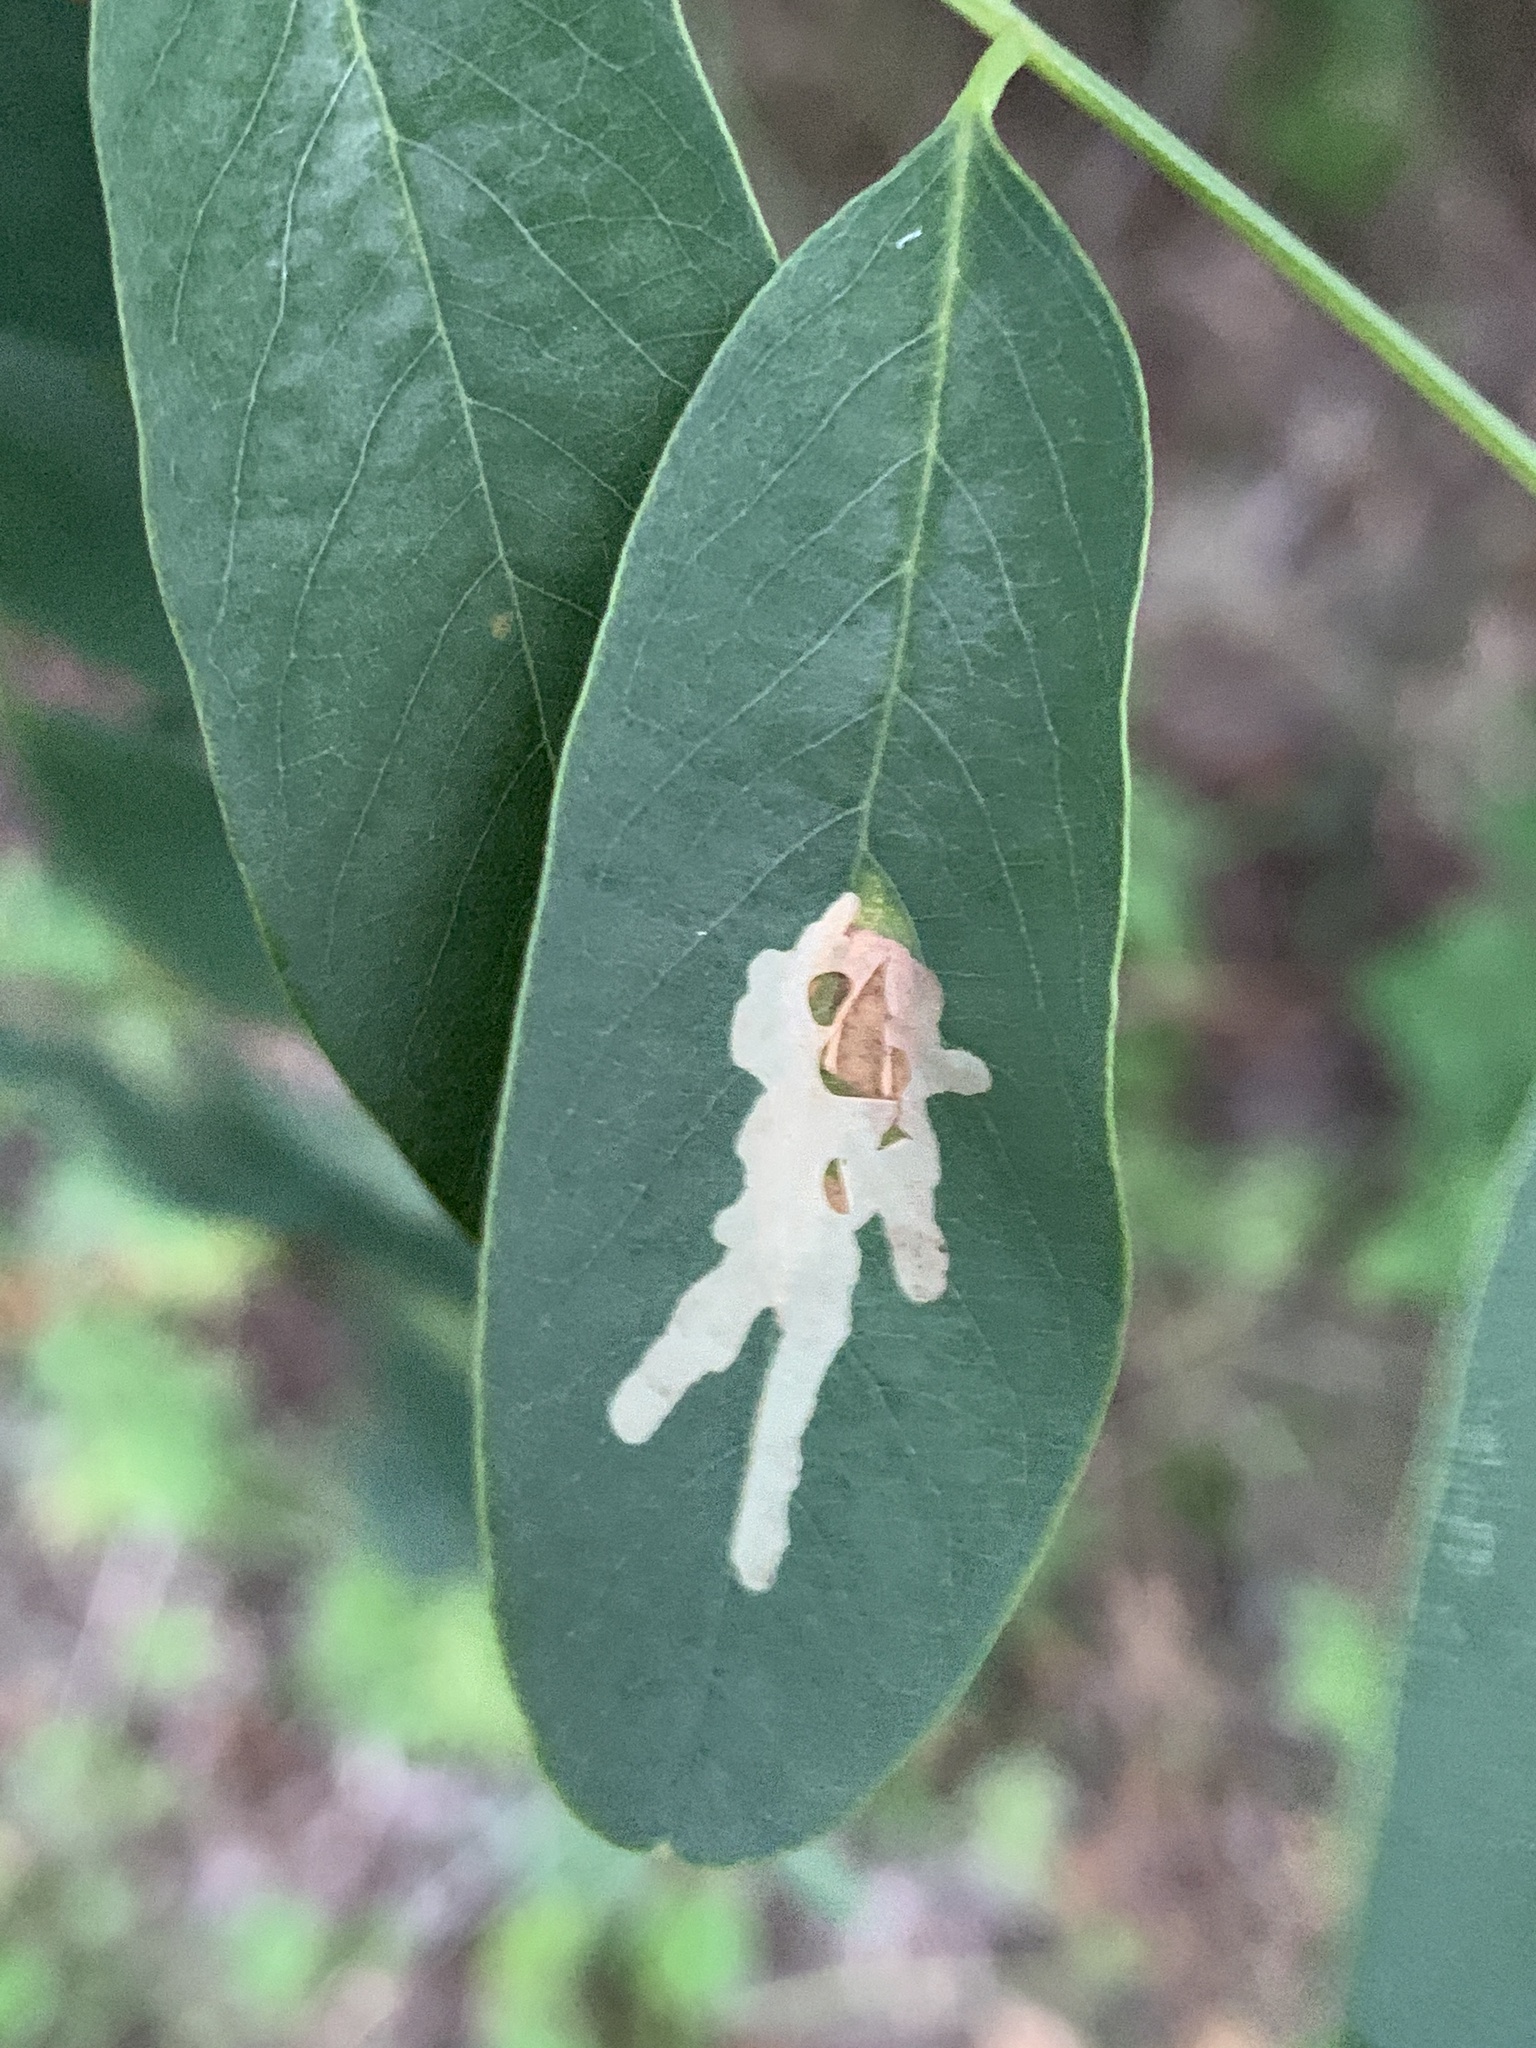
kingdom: Animalia
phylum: Arthropoda
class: Insecta
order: Lepidoptera
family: Gracillariidae
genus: Parectopa
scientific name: Parectopa robiniella
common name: Locust digitate leafminer
